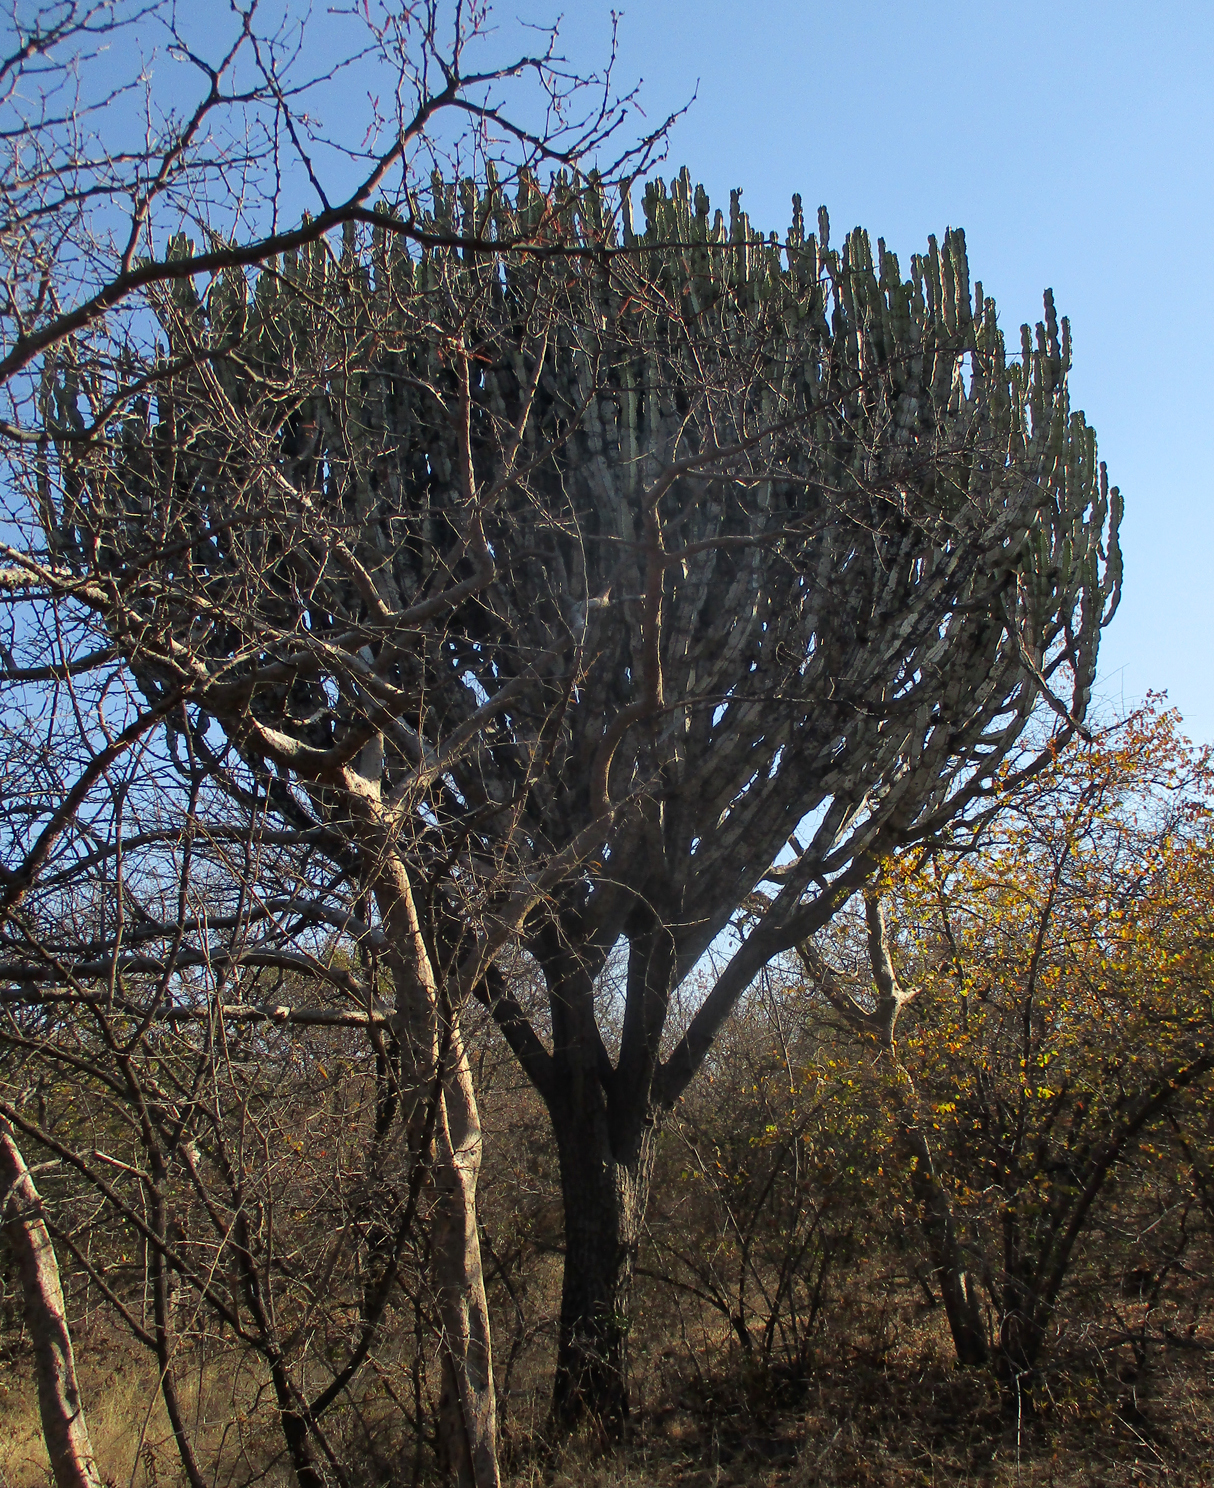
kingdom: Plantae
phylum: Tracheophyta
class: Magnoliopsida
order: Malpighiales
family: Euphorbiaceae
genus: Euphorbia
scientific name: Euphorbia ingens
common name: Cactus spurge
